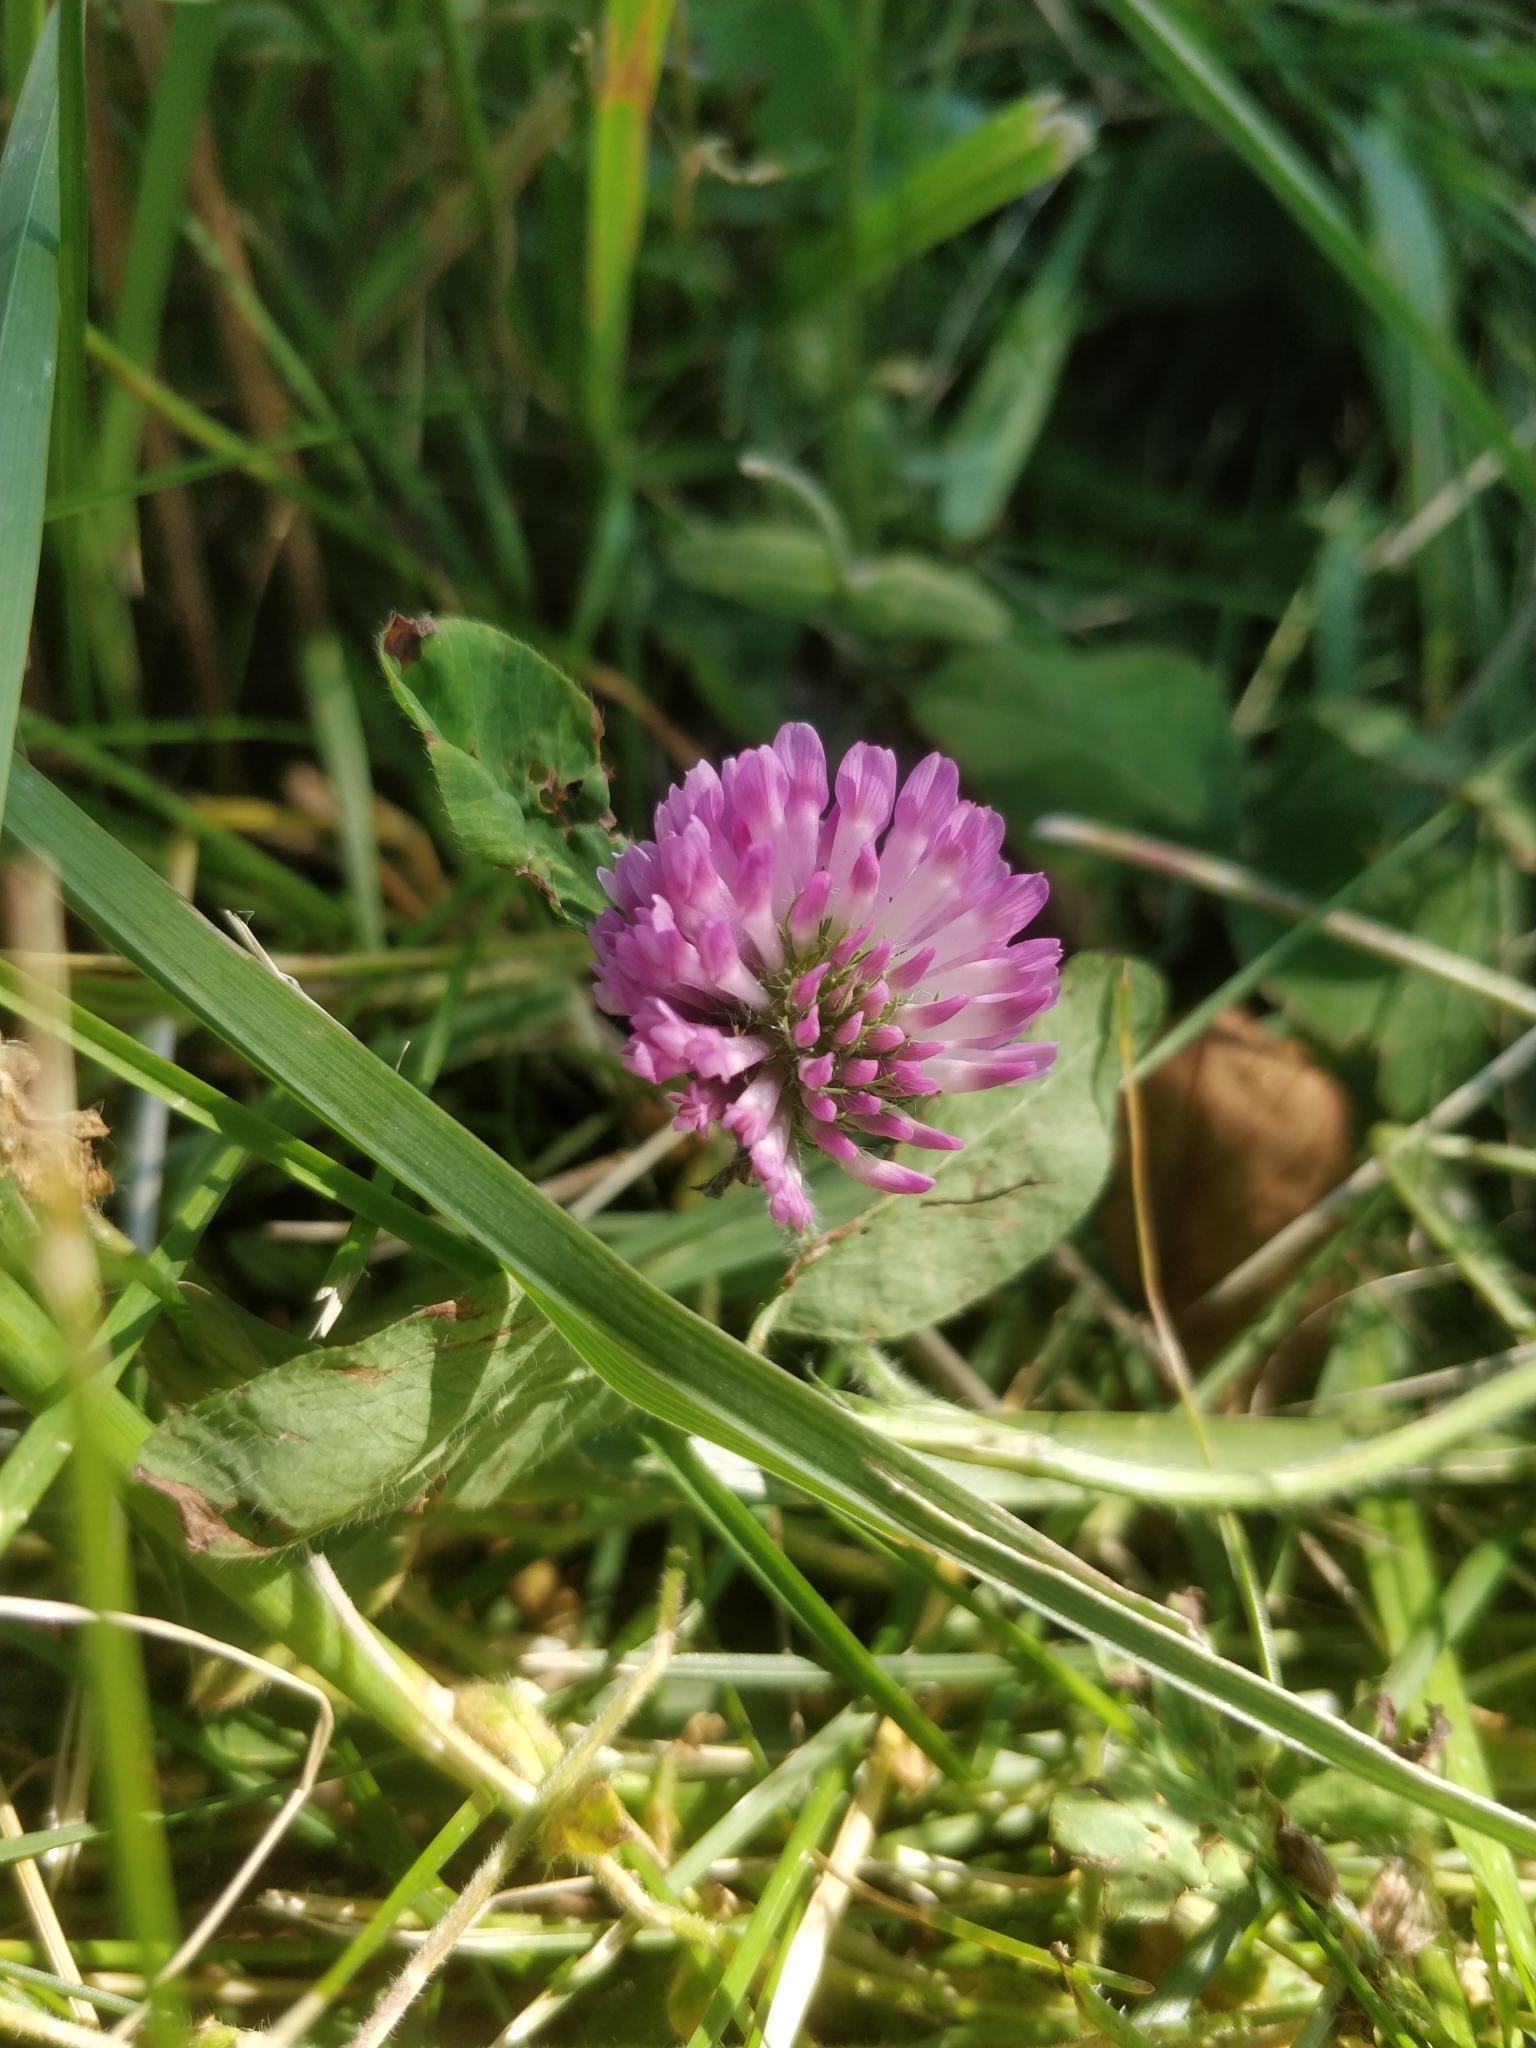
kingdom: Plantae
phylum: Tracheophyta
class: Magnoliopsida
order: Fabales
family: Fabaceae
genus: Trifolium
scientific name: Trifolium pratense
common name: Red clover
